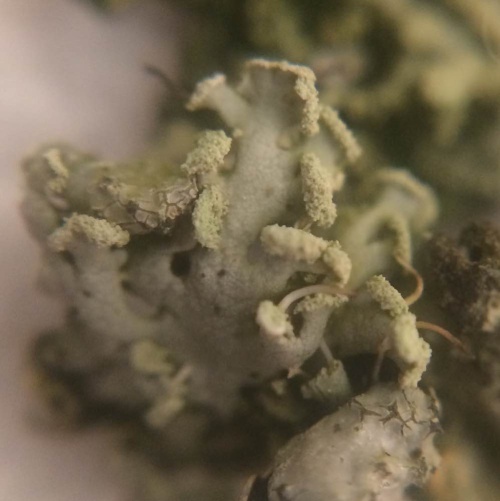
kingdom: Fungi
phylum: Ascomycota
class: Lecanoromycetes
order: Caliciales
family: Physciaceae
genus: Physcia
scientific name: Physcia tenella
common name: Fringed rosette lichen
